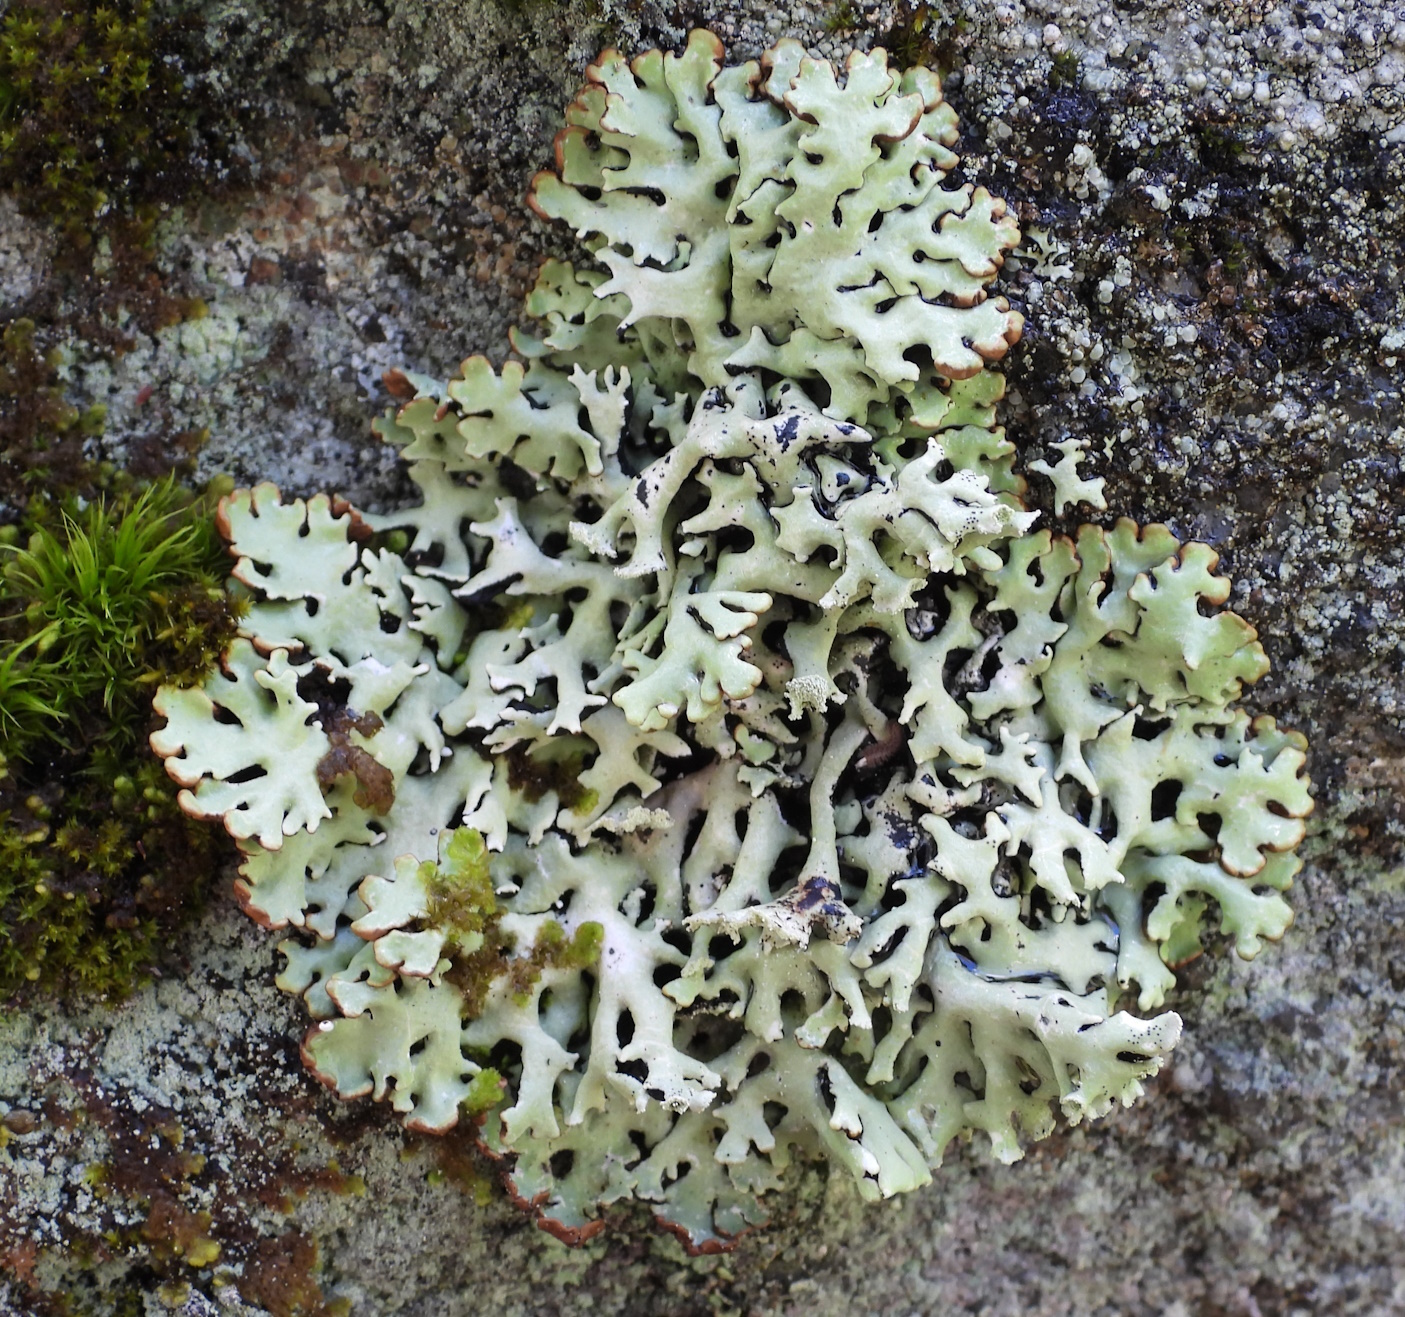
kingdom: Fungi
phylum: Ascomycota
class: Lecanoromycetes
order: Lecanorales
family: Parmeliaceae
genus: Hypogymnia
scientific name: Hypogymnia physodes
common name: Dark crottle
